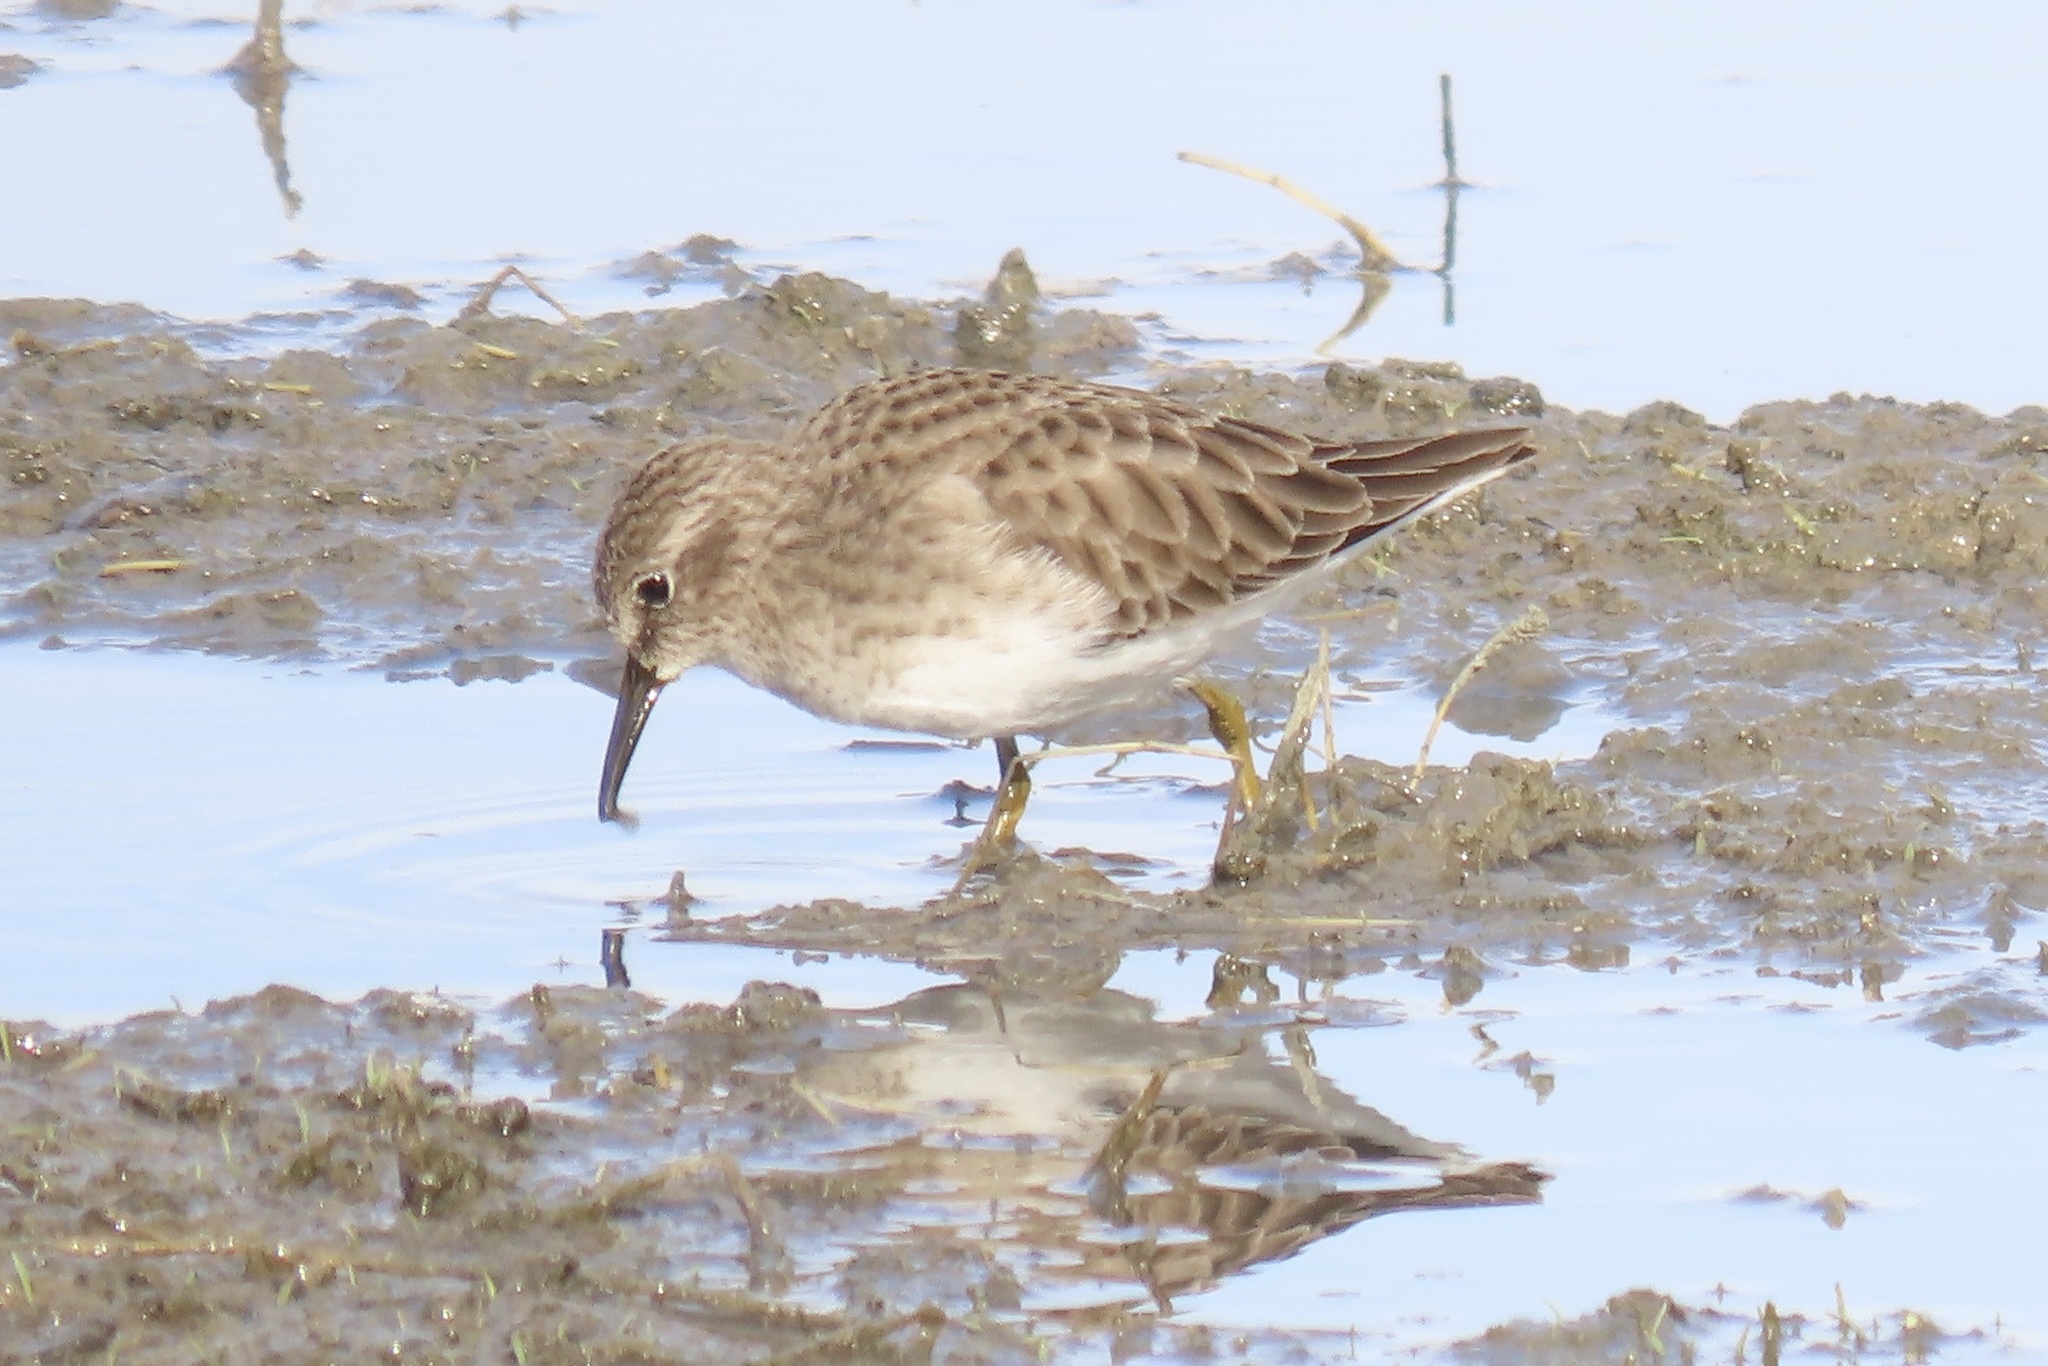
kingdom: Animalia
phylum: Chordata
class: Aves
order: Charadriiformes
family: Scolopacidae
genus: Calidris
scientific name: Calidris minutilla
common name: Least sandpiper
